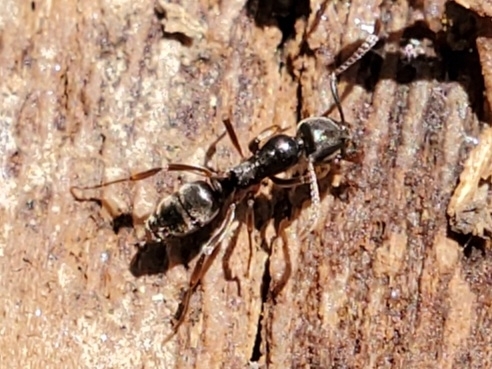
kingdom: Animalia
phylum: Arthropoda
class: Insecta
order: Hymenoptera
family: Formicidae
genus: Pachycondyla
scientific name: Pachycondyla chinensis
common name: Asian needle ant
